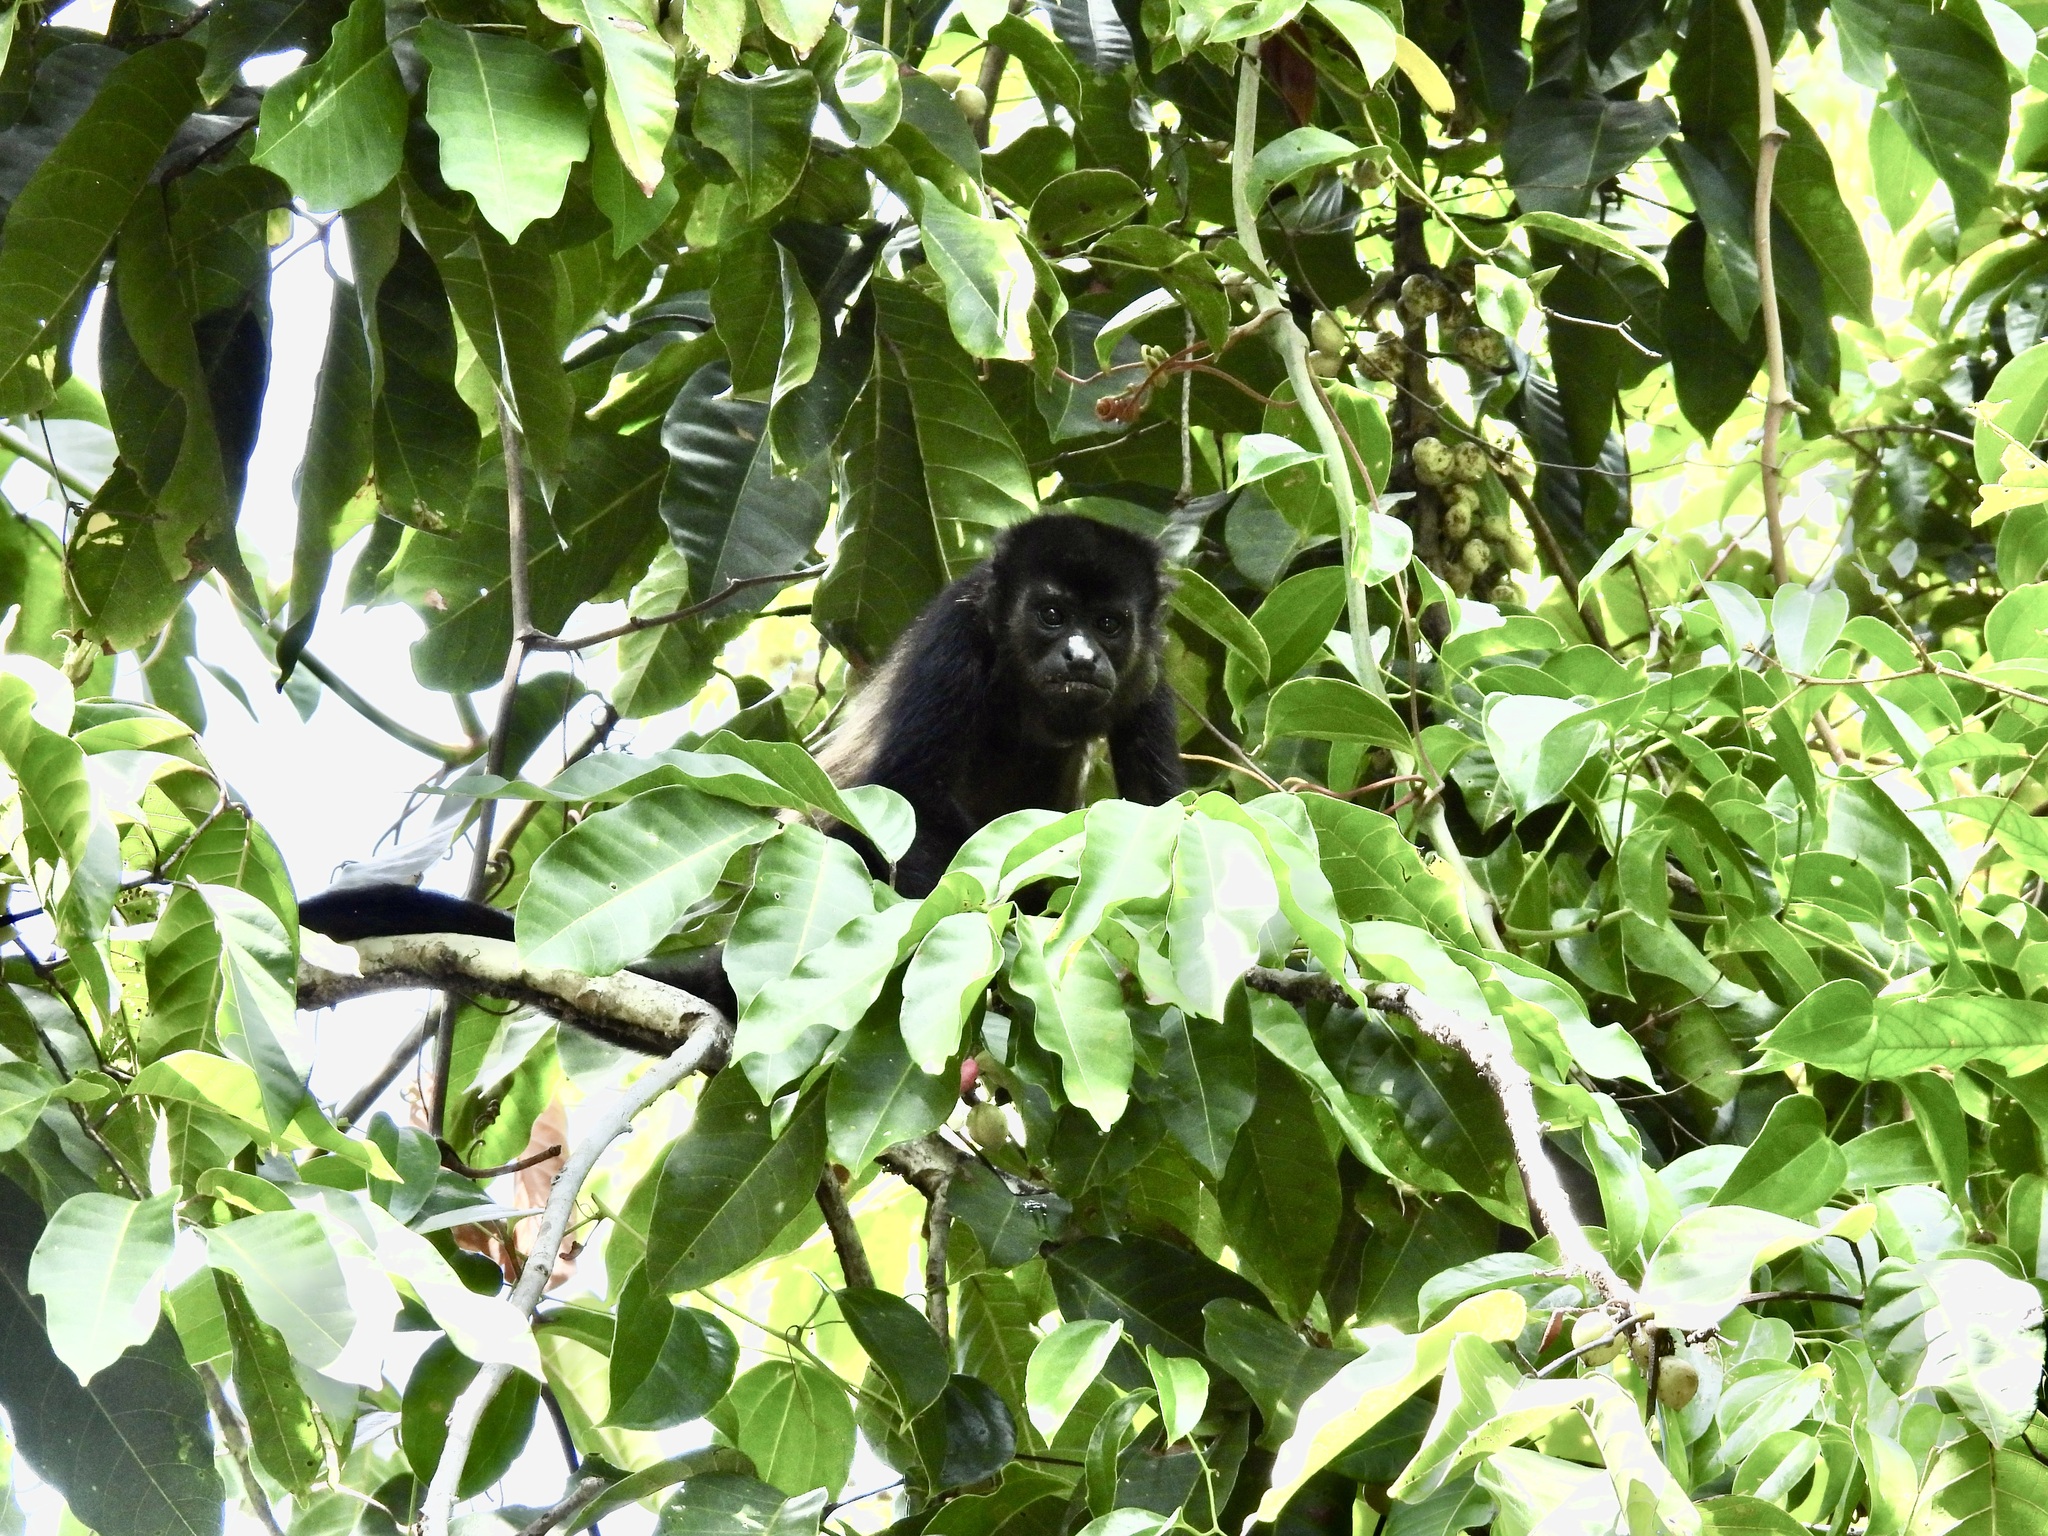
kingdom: Animalia
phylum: Chordata
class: Mammalia
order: Primates
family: Atelidae
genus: Alouatta
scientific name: Alouatta palliata
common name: Mantled howler
